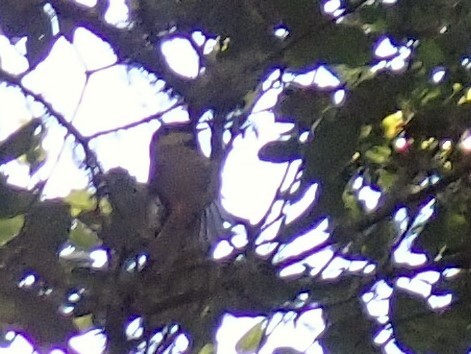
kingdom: Animalia
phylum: Chordata
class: Aves
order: Passeriformes
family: Paridae
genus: Poecile
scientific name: Poecile rufescens
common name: Chestnut-backed chickadee
